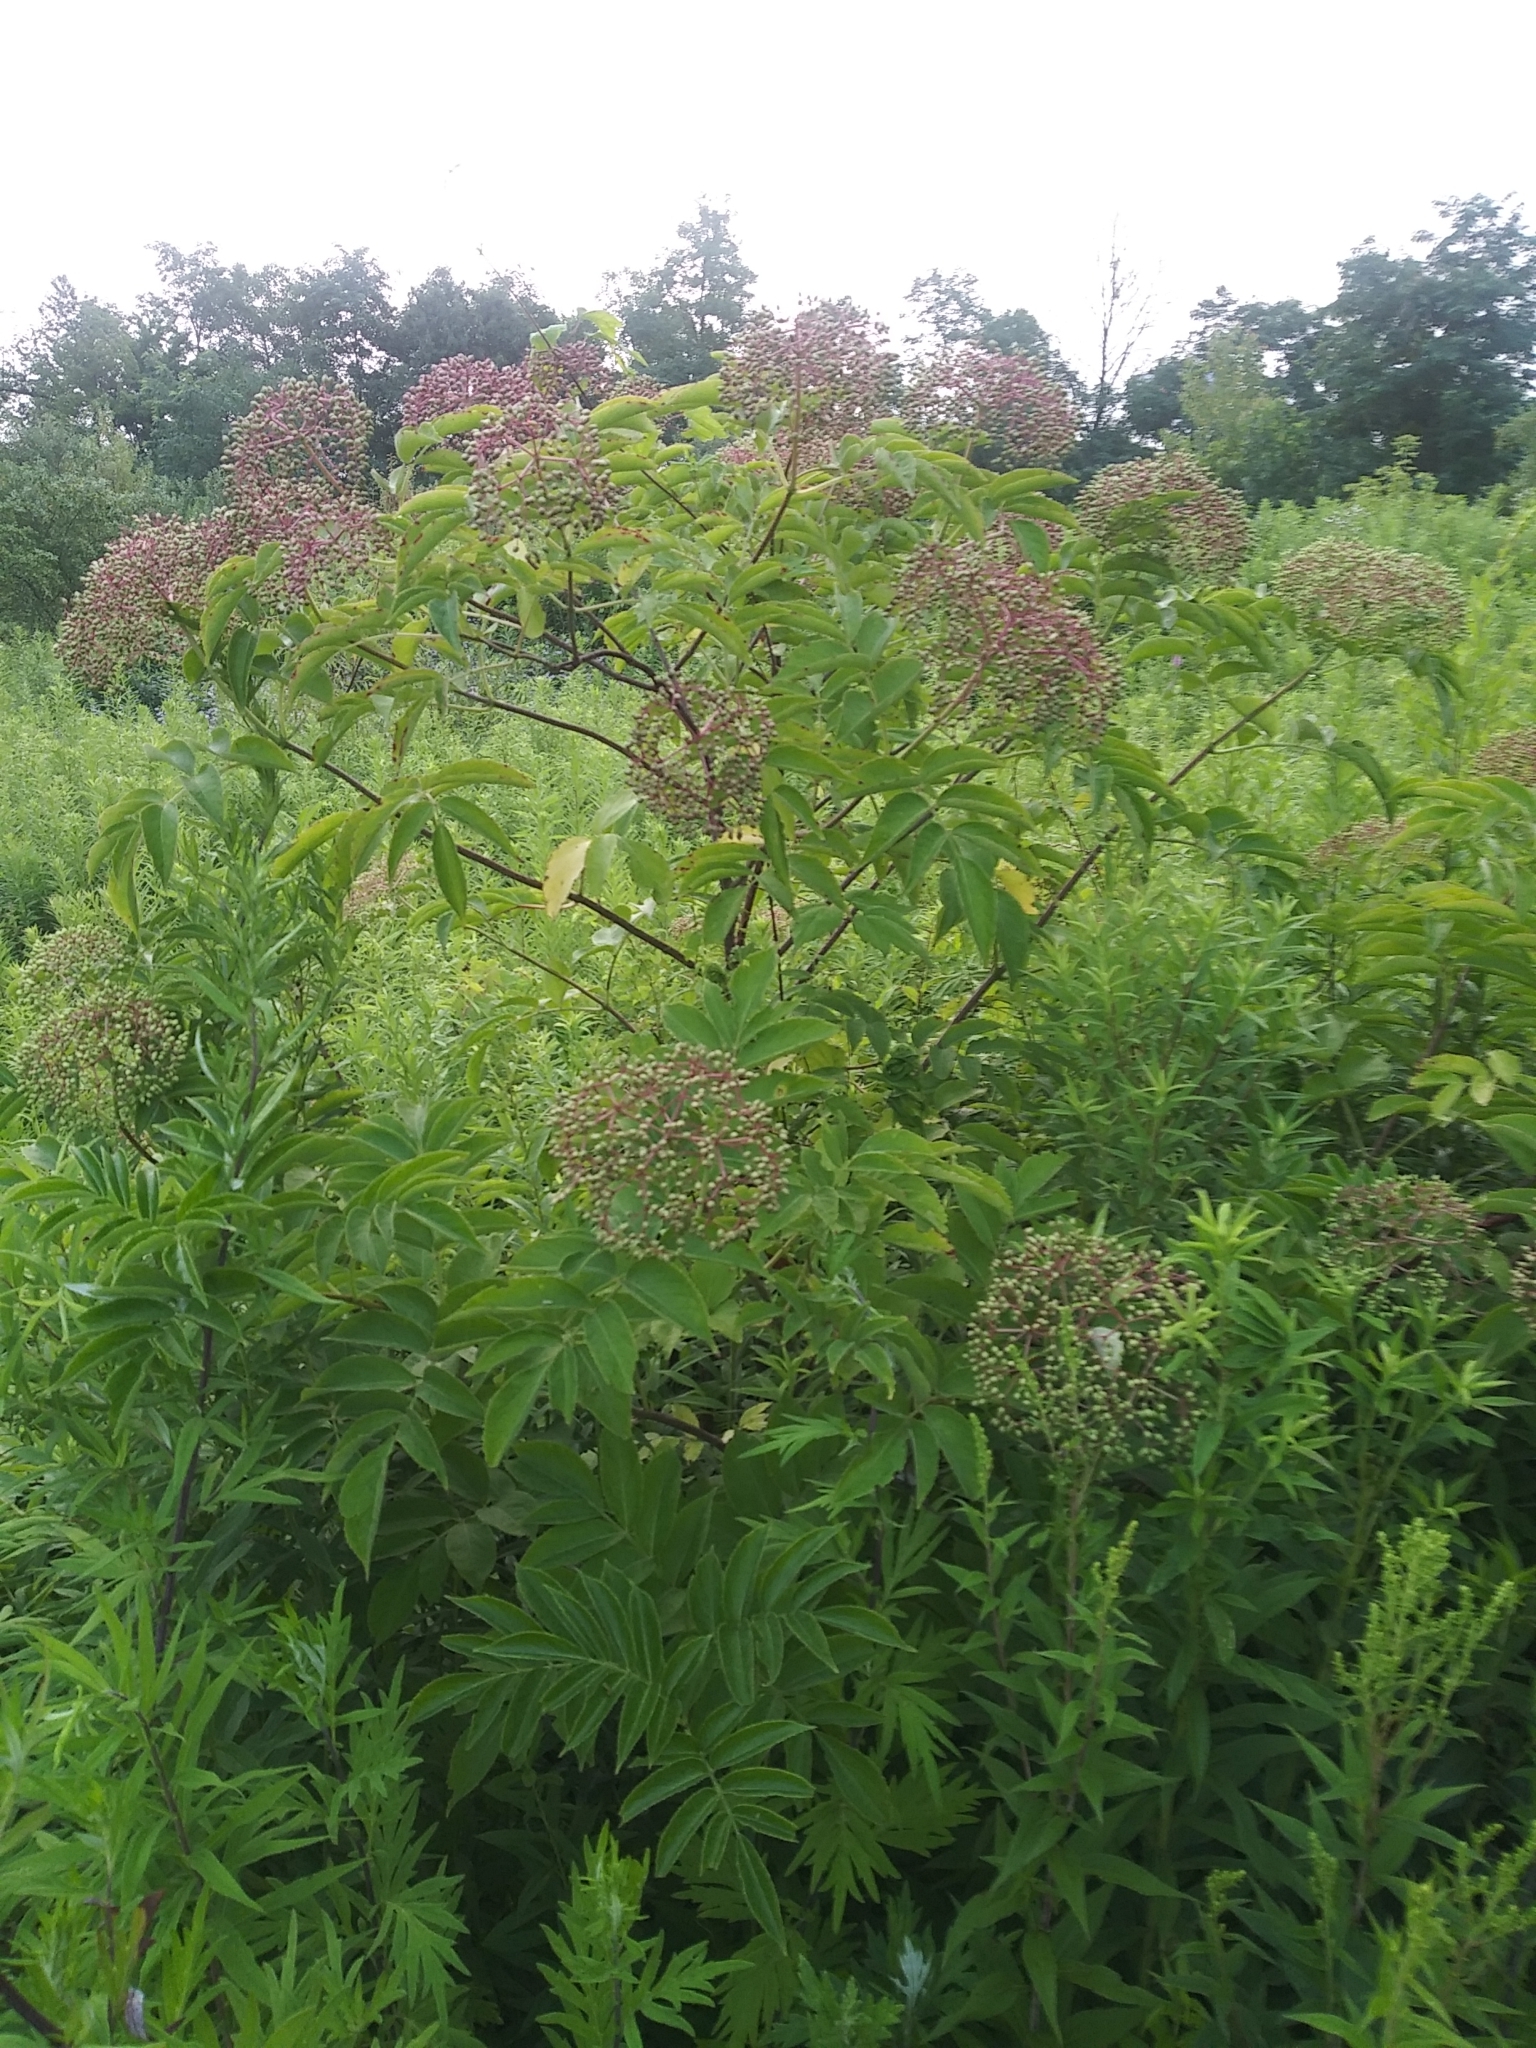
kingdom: Plantae
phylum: Tracheophyta
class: Magnoliopsida
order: Dipsacales
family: Viburnaceae
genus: Sambucus
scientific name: Sambucus canadensis
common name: American elder
